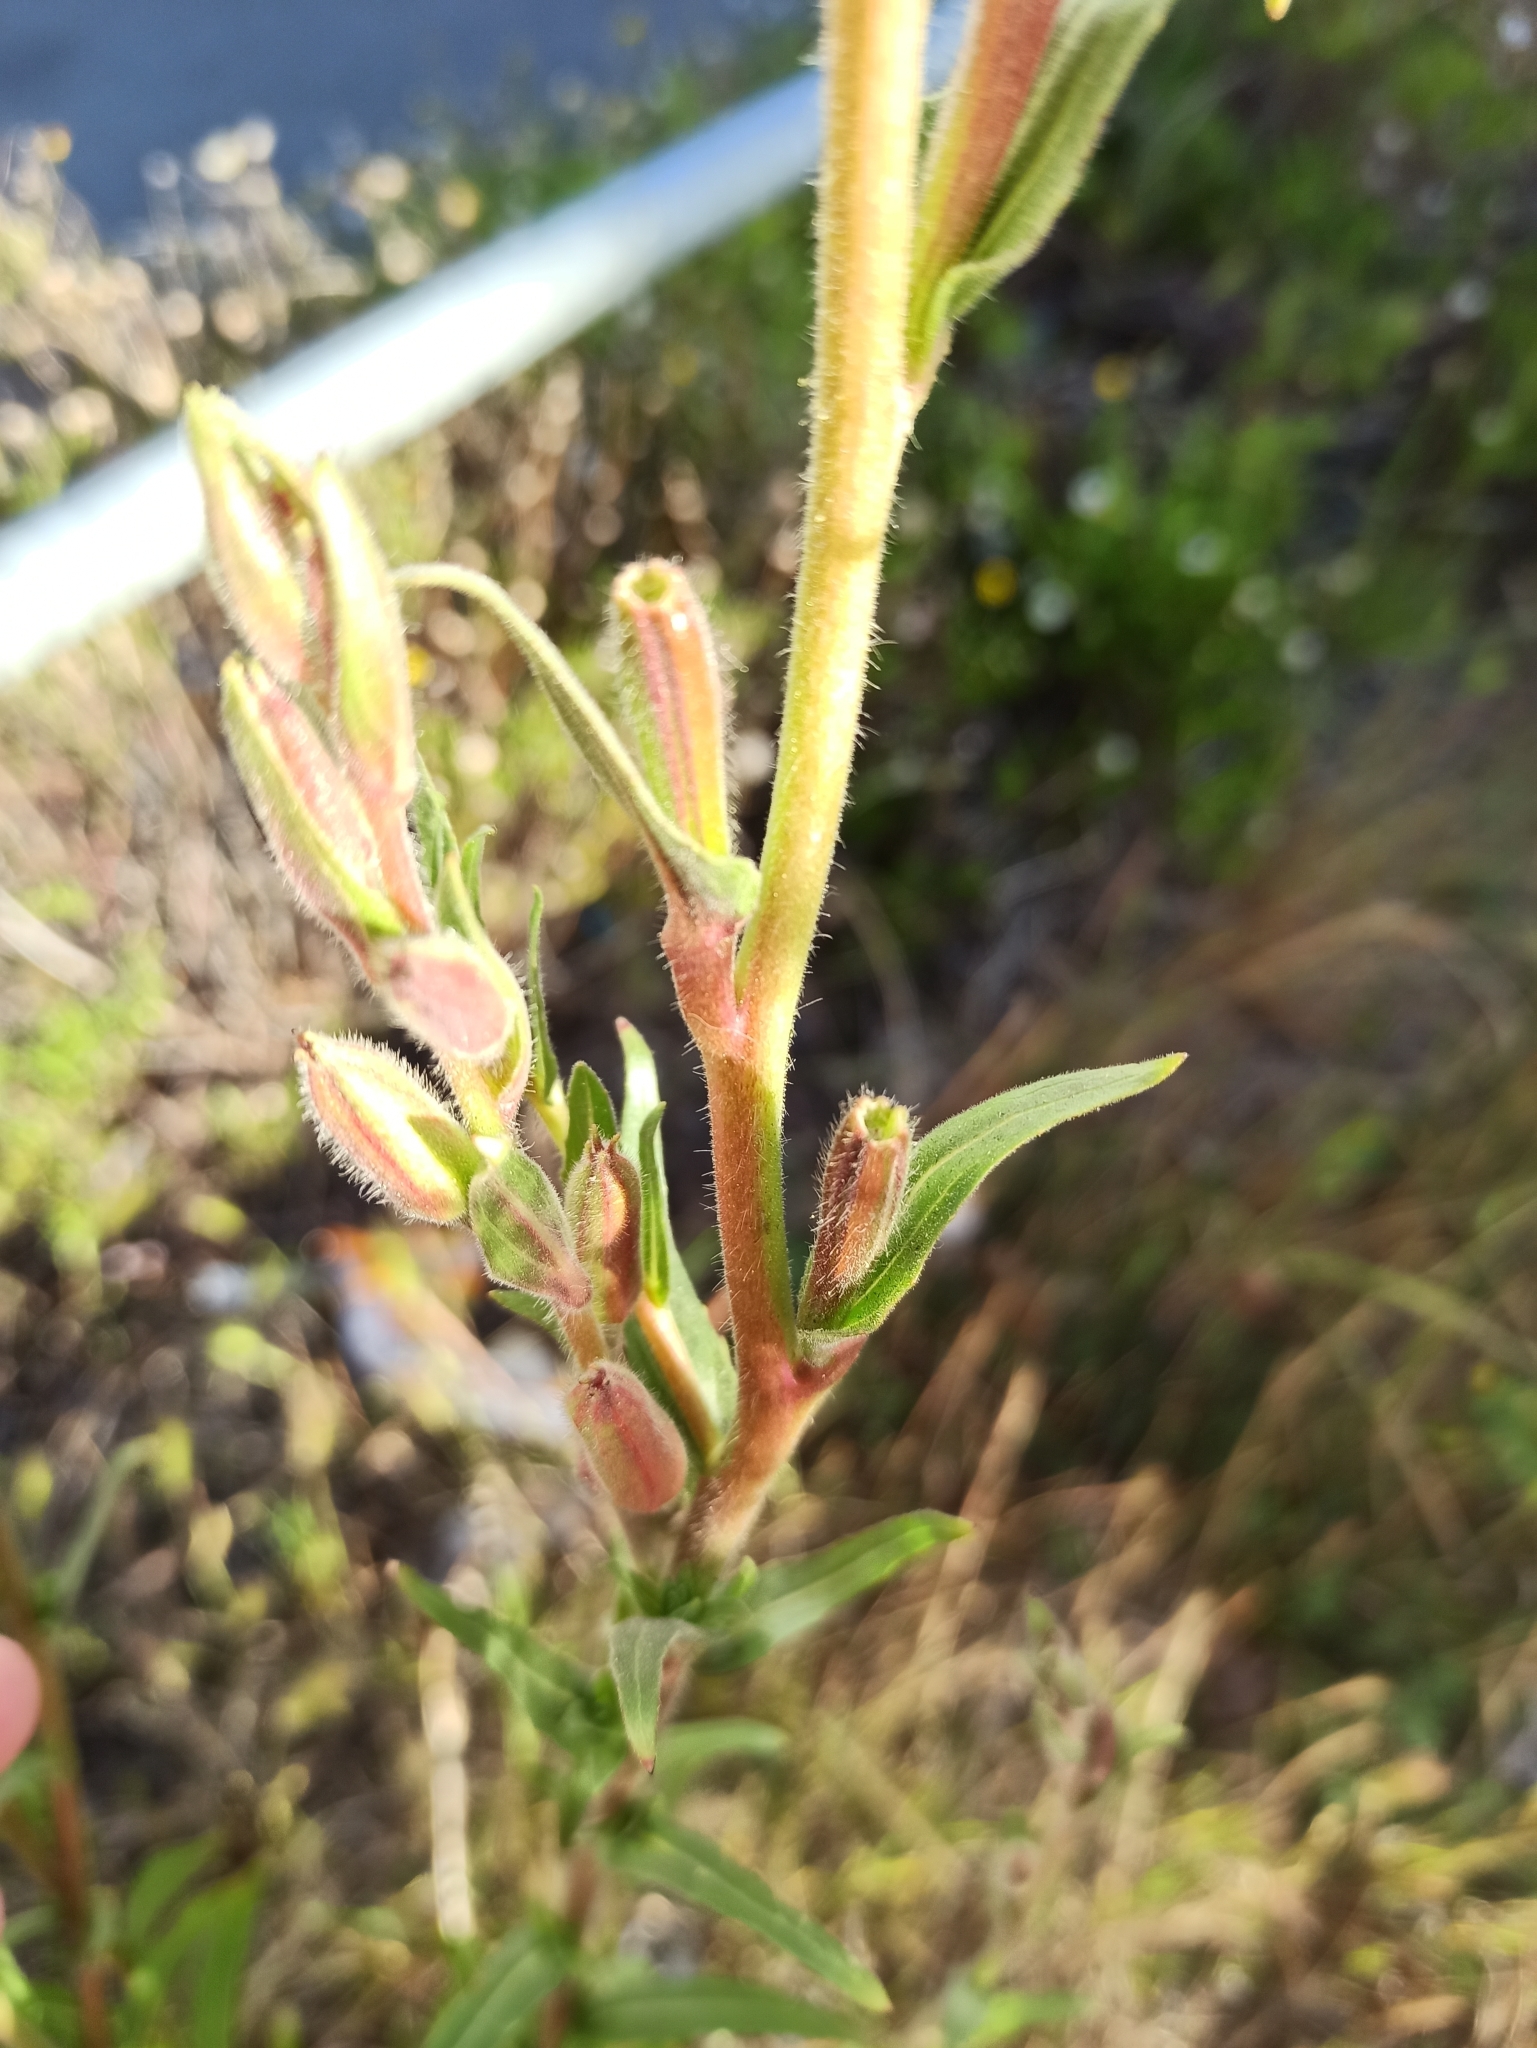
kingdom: Plantae
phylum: Tracheophyta
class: Magnoliopsida
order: Myrtales
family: Onagraceae
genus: Oenothera
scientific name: Oenothera stricta
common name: Fragrant evening-primrose
